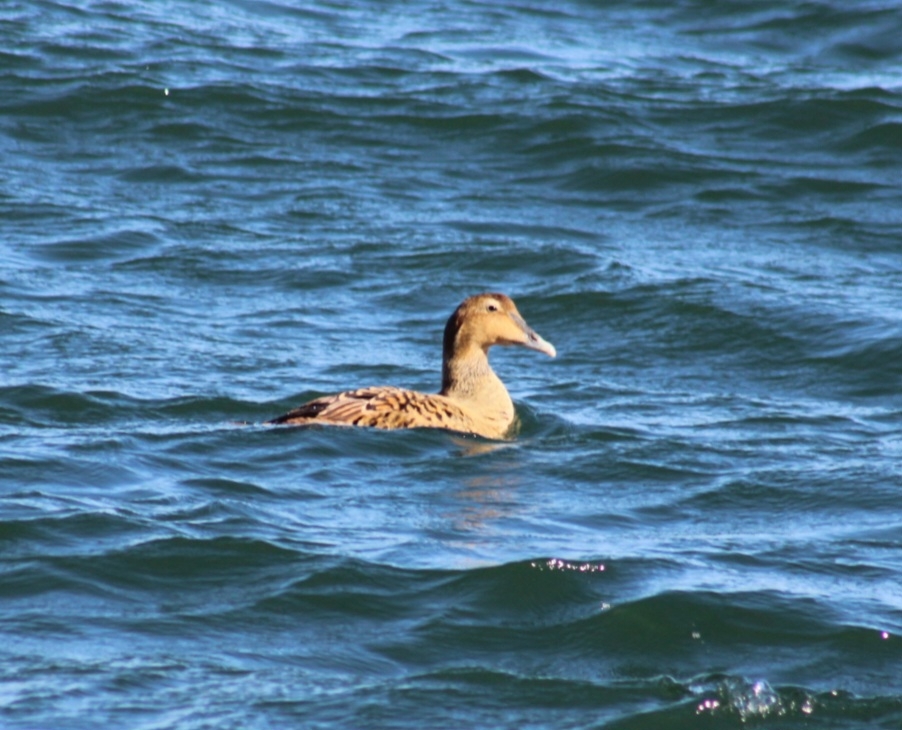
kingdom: Animalia
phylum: Chordata
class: Aves
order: Anseriformes
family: Anatidae
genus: Somateria
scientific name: Somateria mollissima
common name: Common eider
